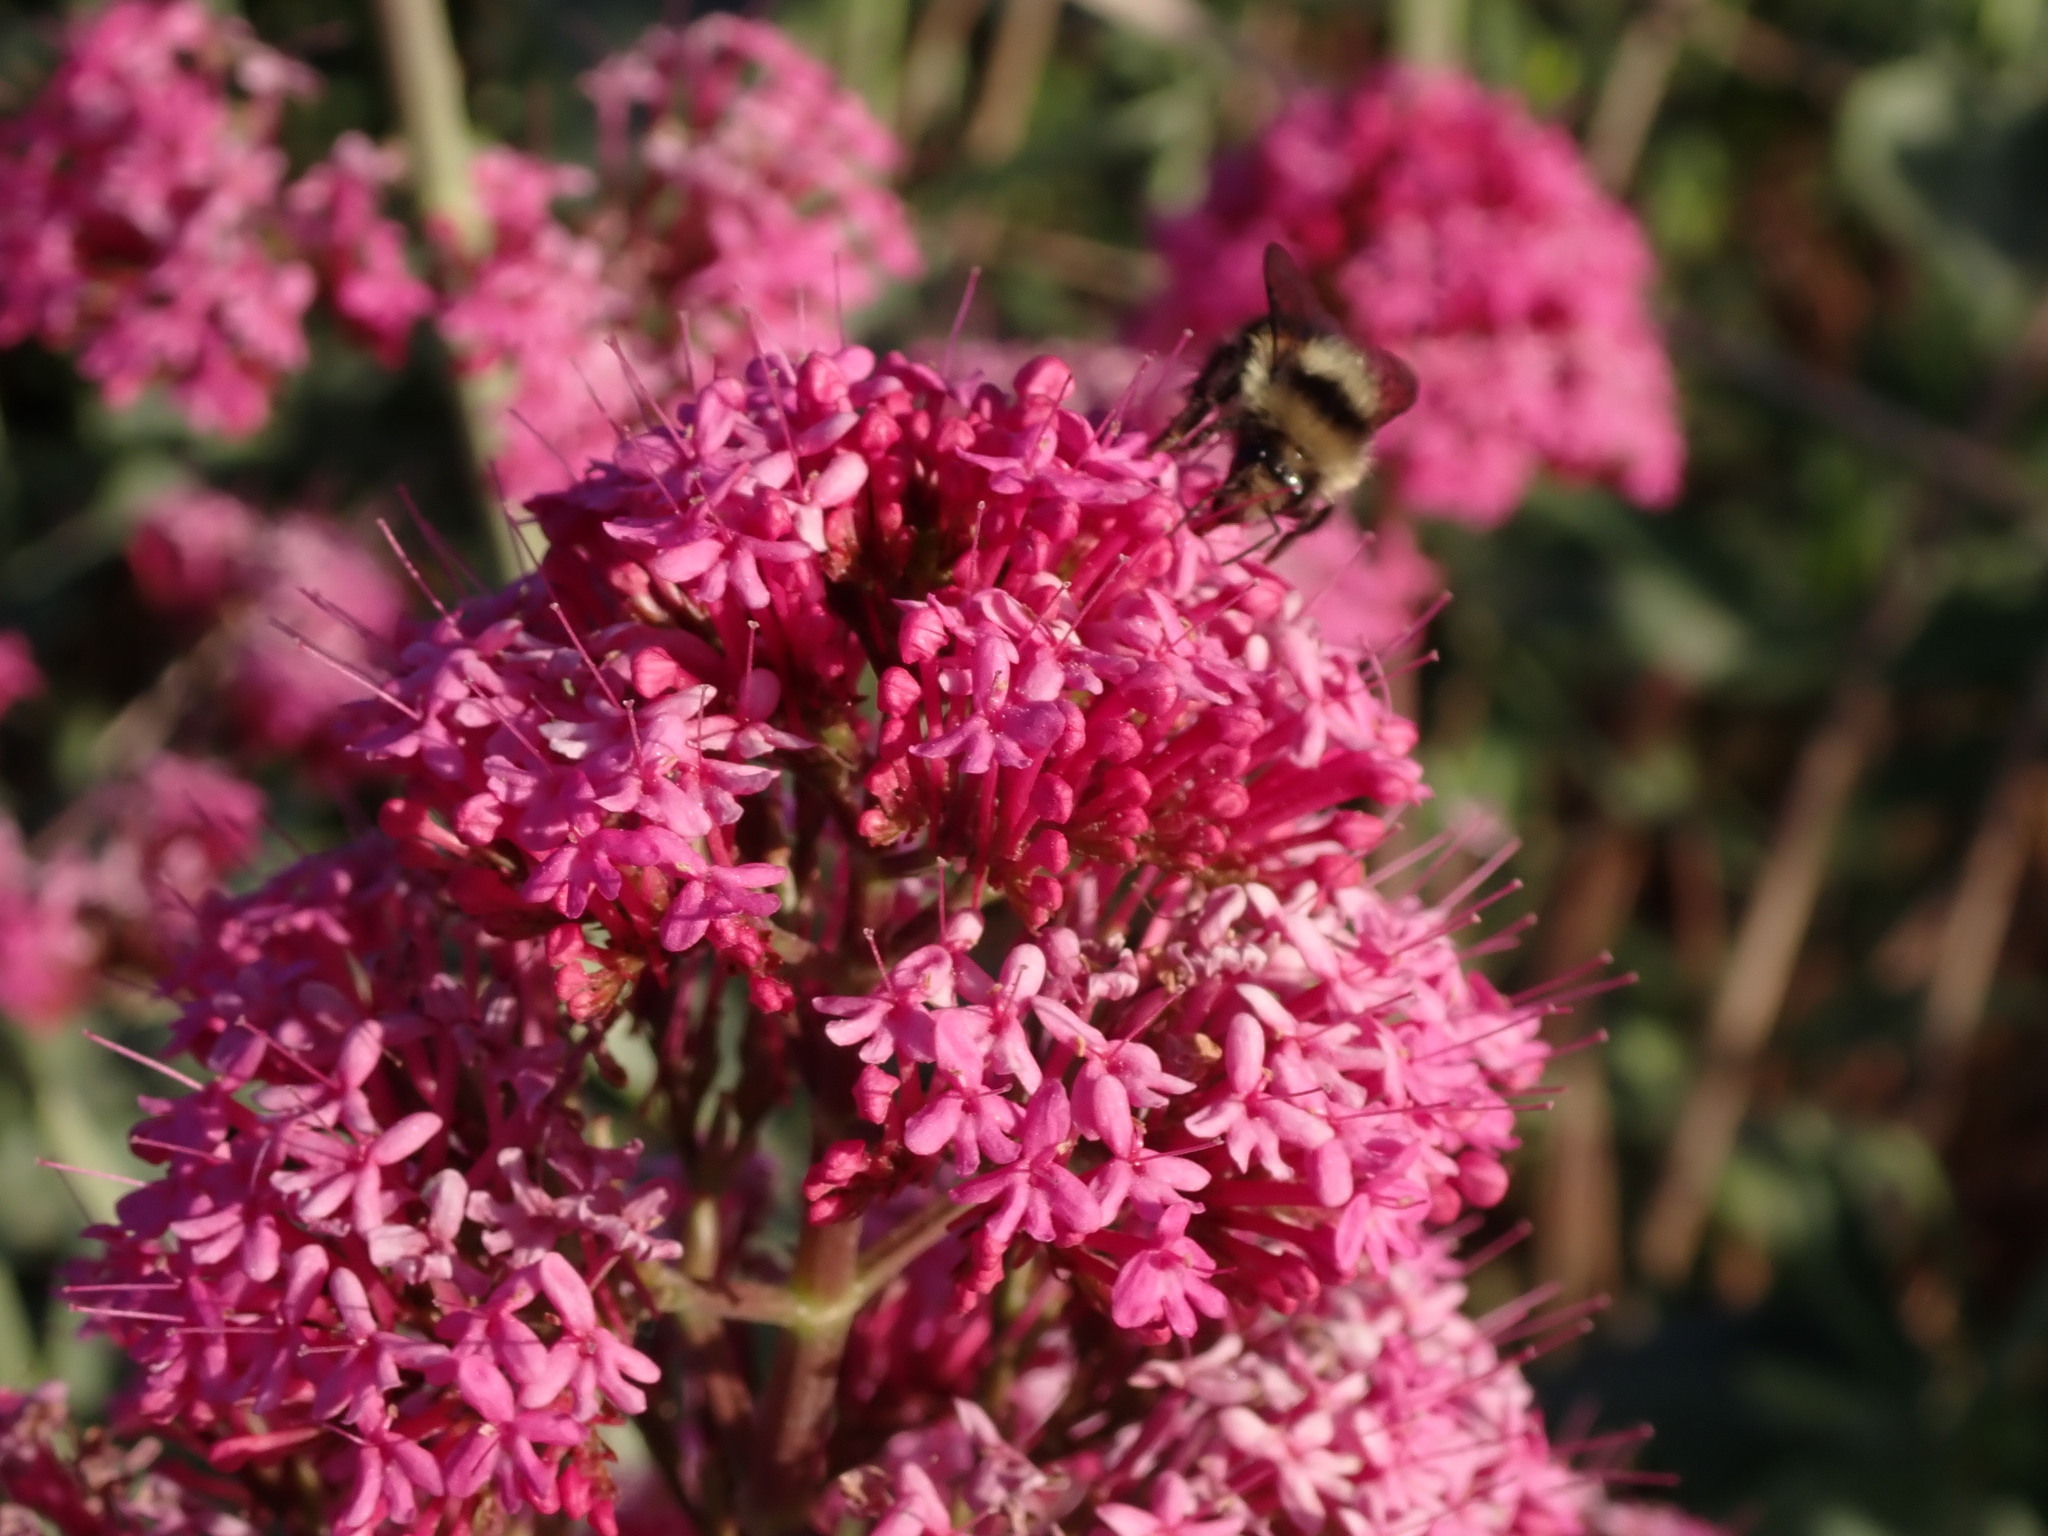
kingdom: Animalia
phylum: Arthropoda
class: Insecta
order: Hymenoptera
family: Apidae
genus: Bombus
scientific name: Bombus melanopygus
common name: Black tail bumble bee
